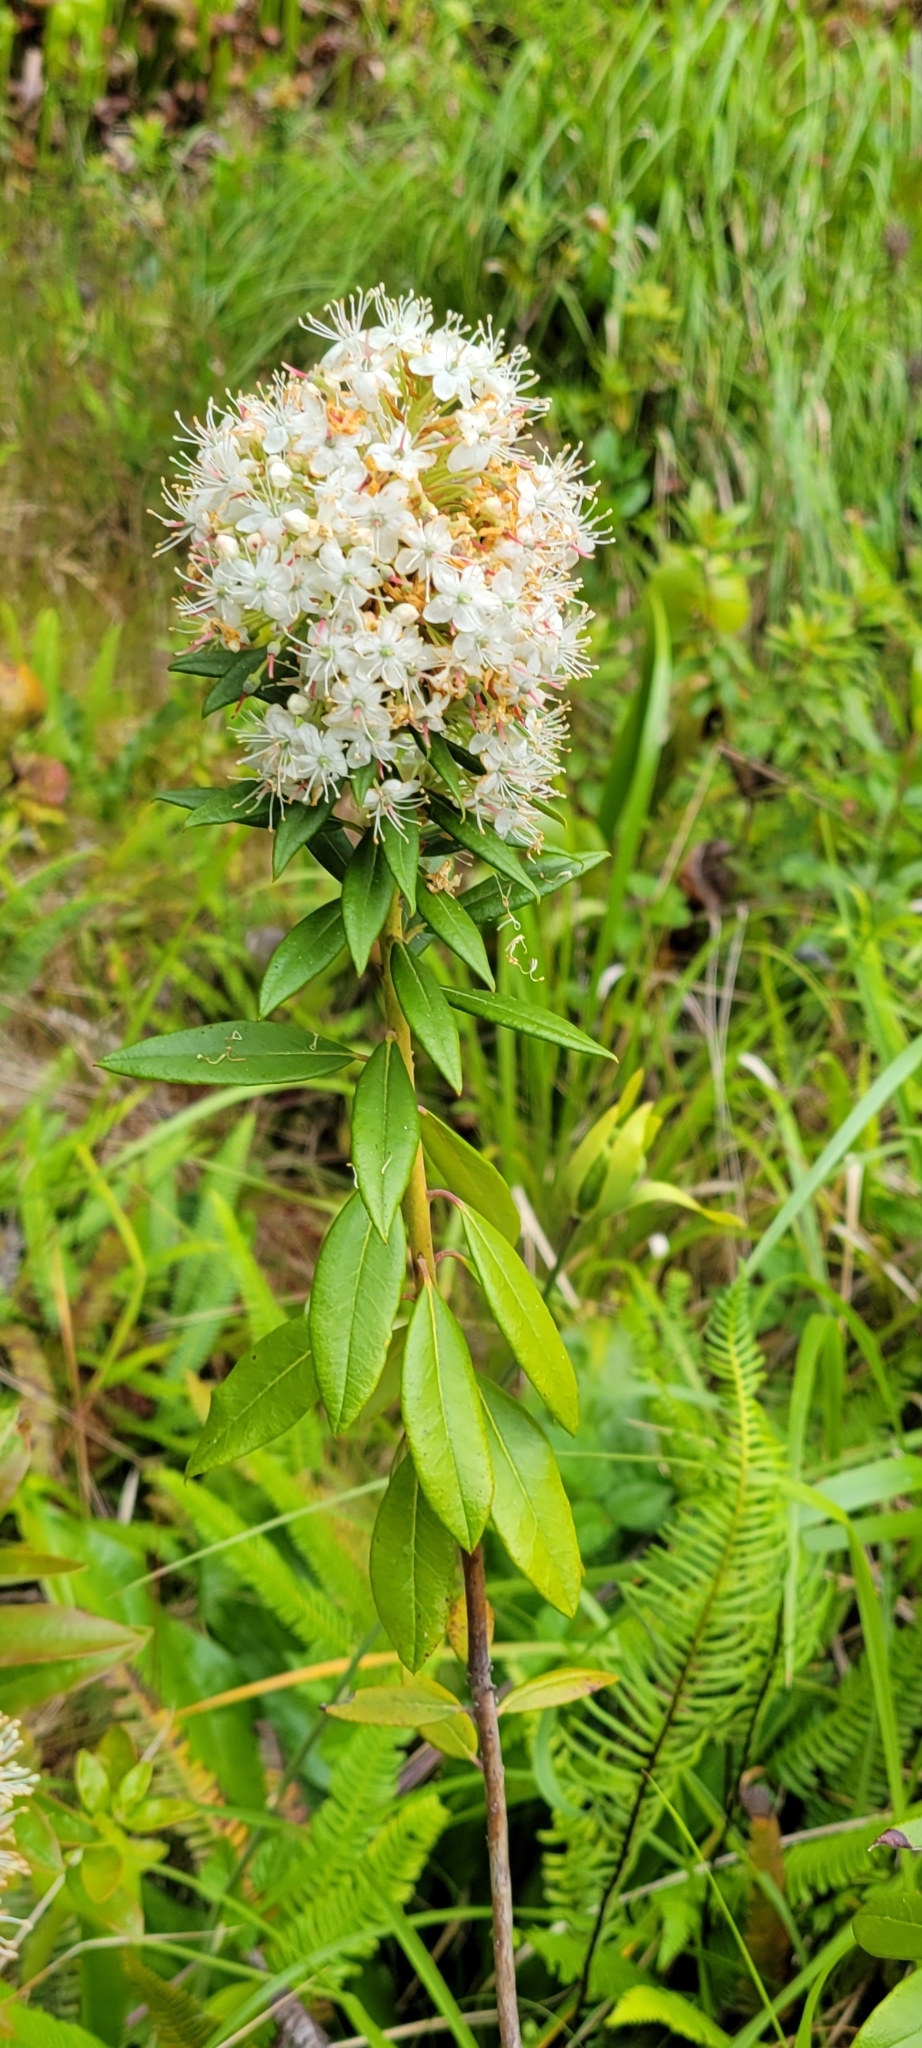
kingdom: Plantae
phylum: Tracheophyta
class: Magnoliopsida
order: Ericales
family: Ericaceae
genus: Rhododendron
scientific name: Rhododendron columbianum
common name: Western labrador tea
